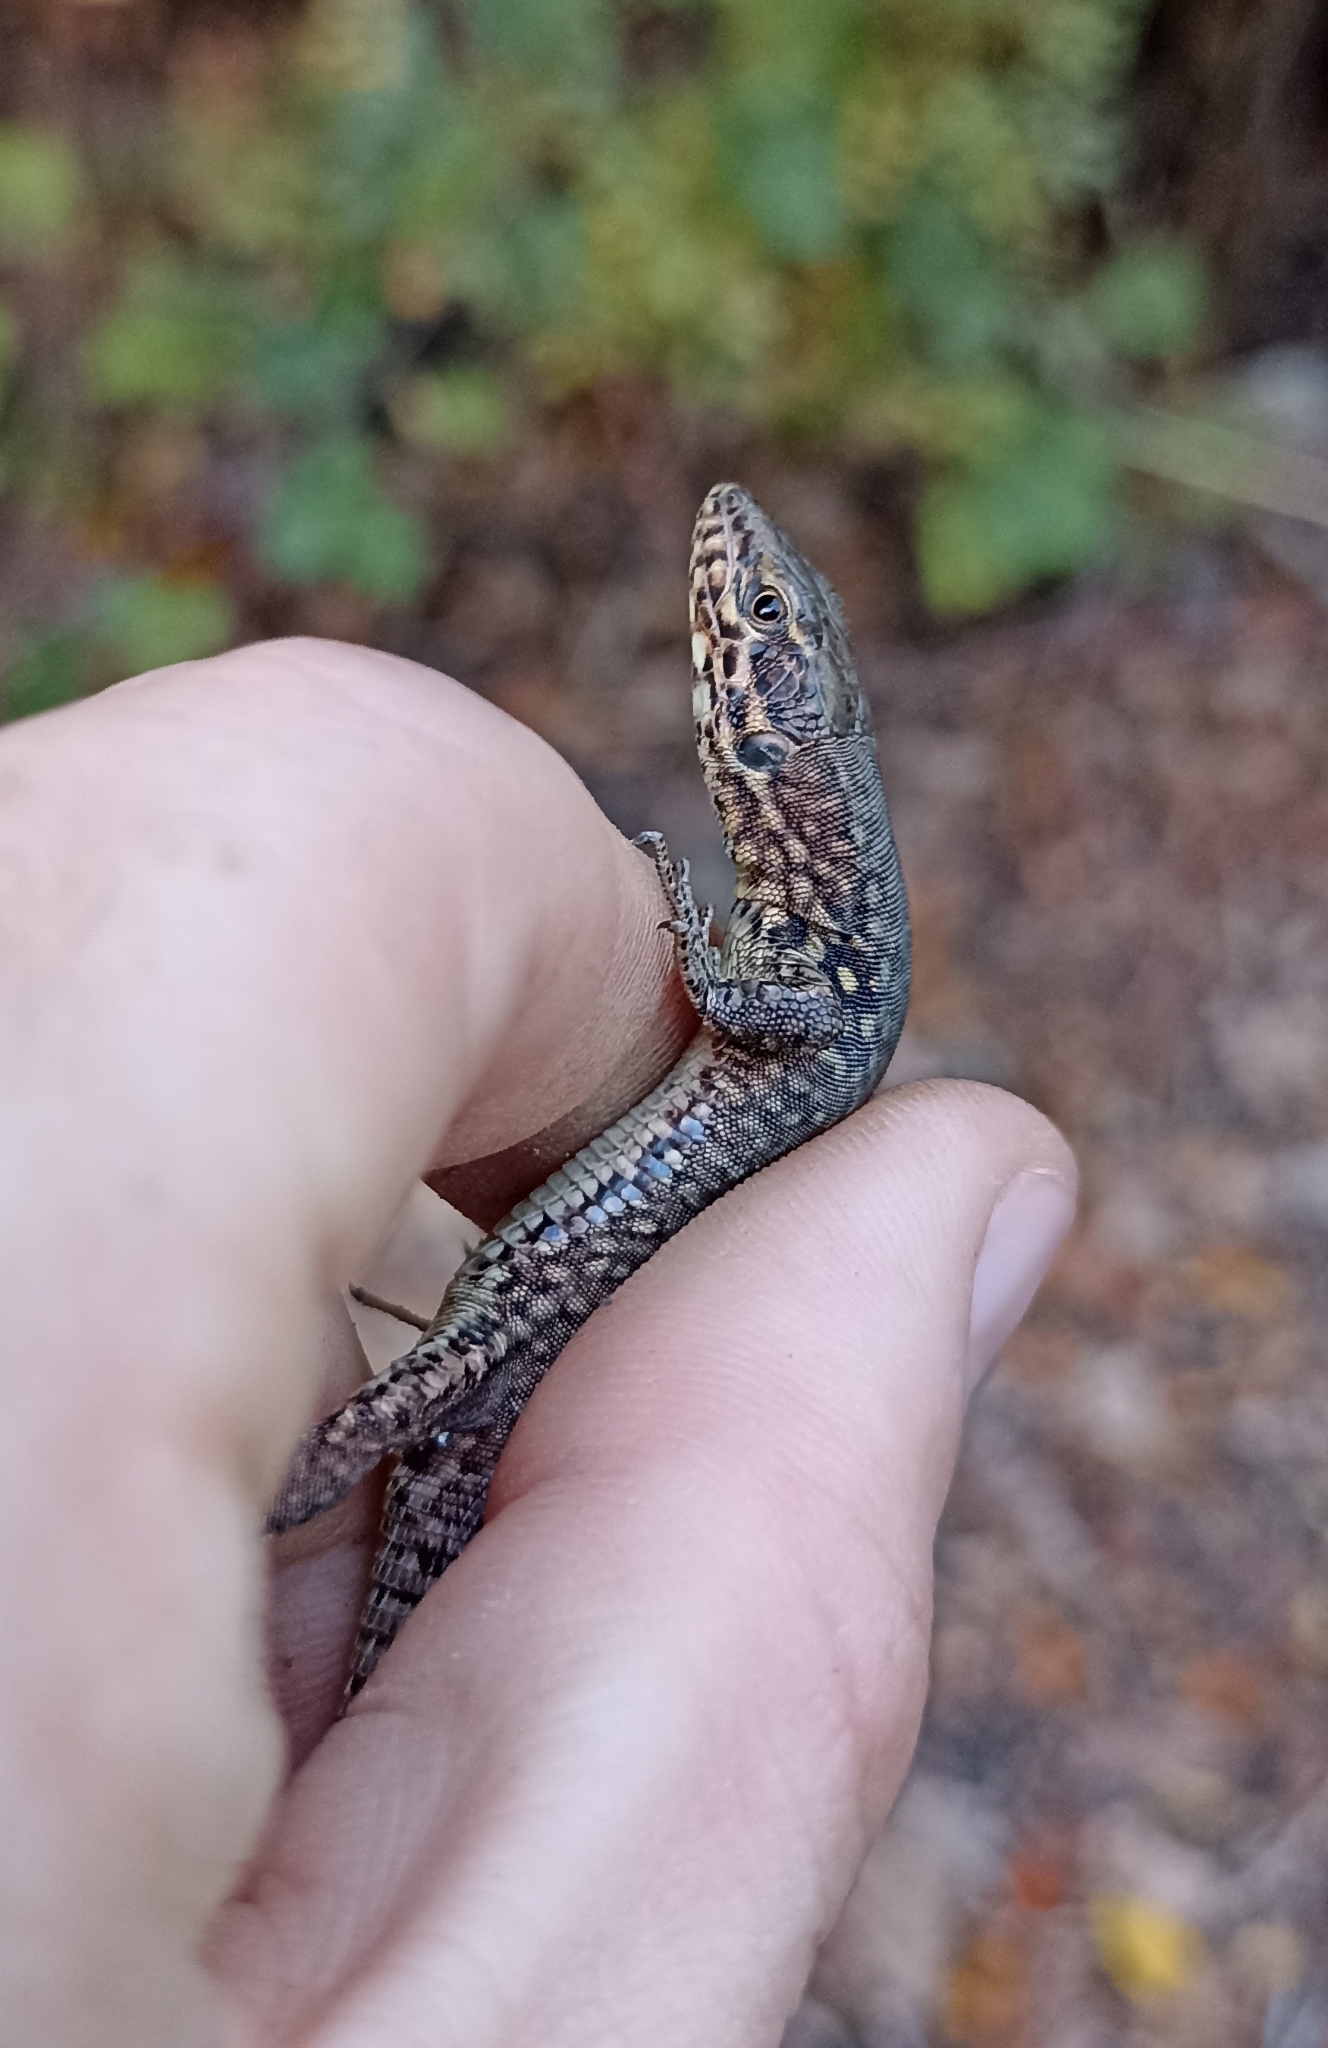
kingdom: Animalia
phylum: Chordata
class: Squamata
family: Lacertidae
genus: Podarcis
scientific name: Podarcis muralis
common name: Common wall lizard
